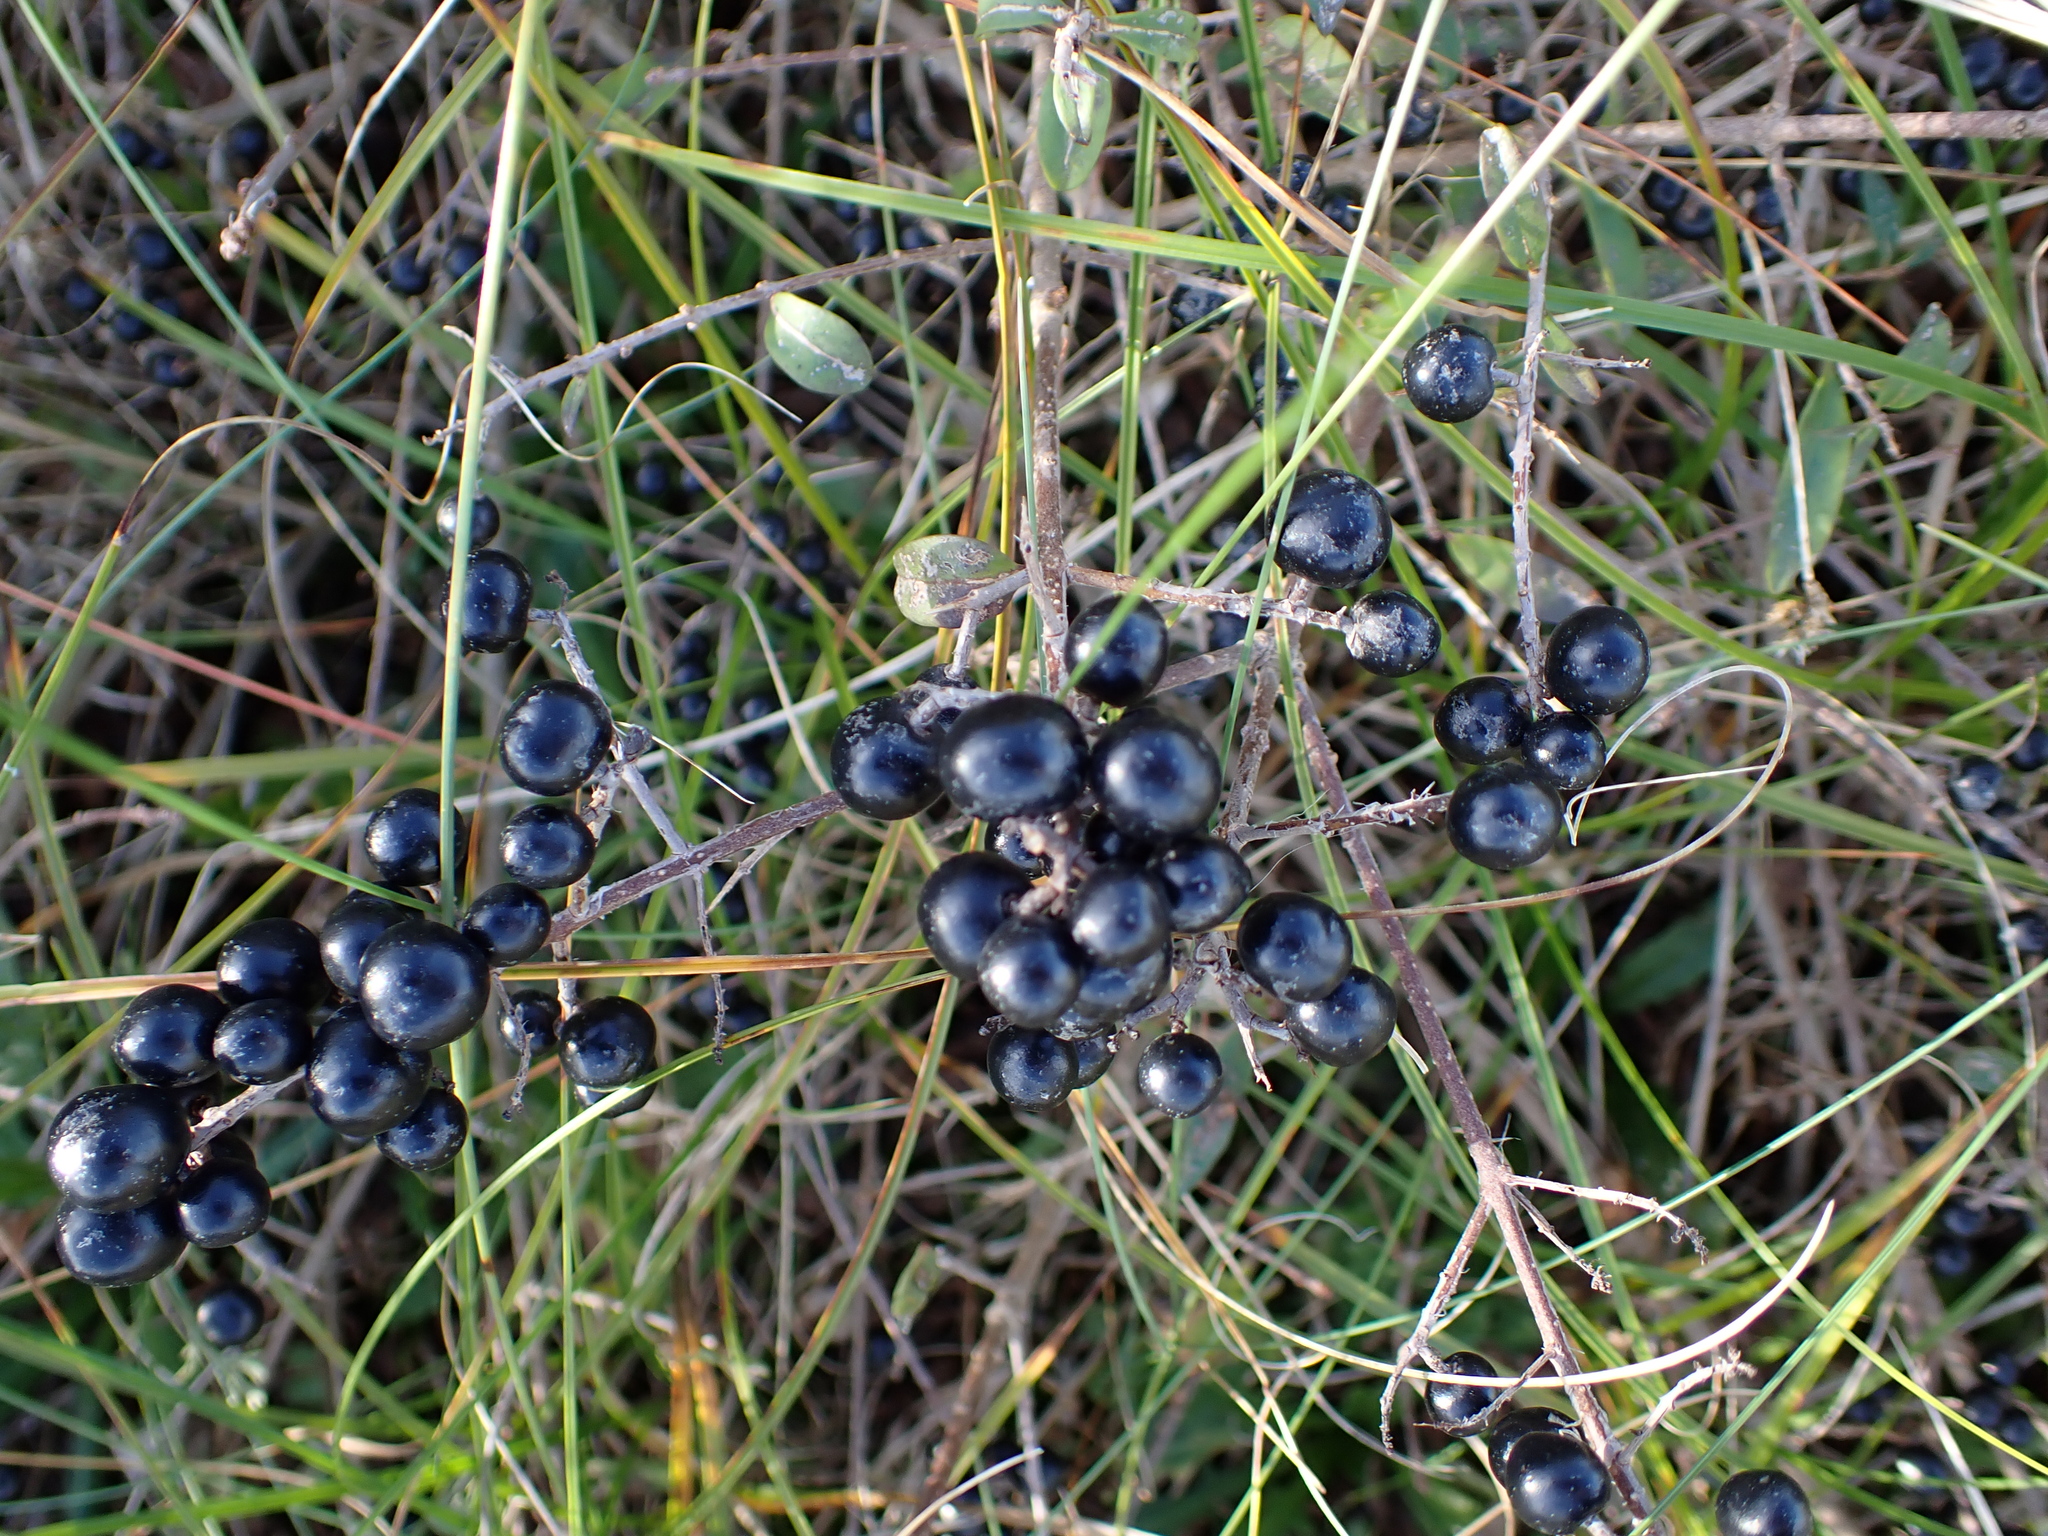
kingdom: Plantae
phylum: Tracheophyta
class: Magnoliopsida
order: Lamiales
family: Oleaceae
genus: Ligustrum
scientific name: Ligustrum vulgare
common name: Wild privet
